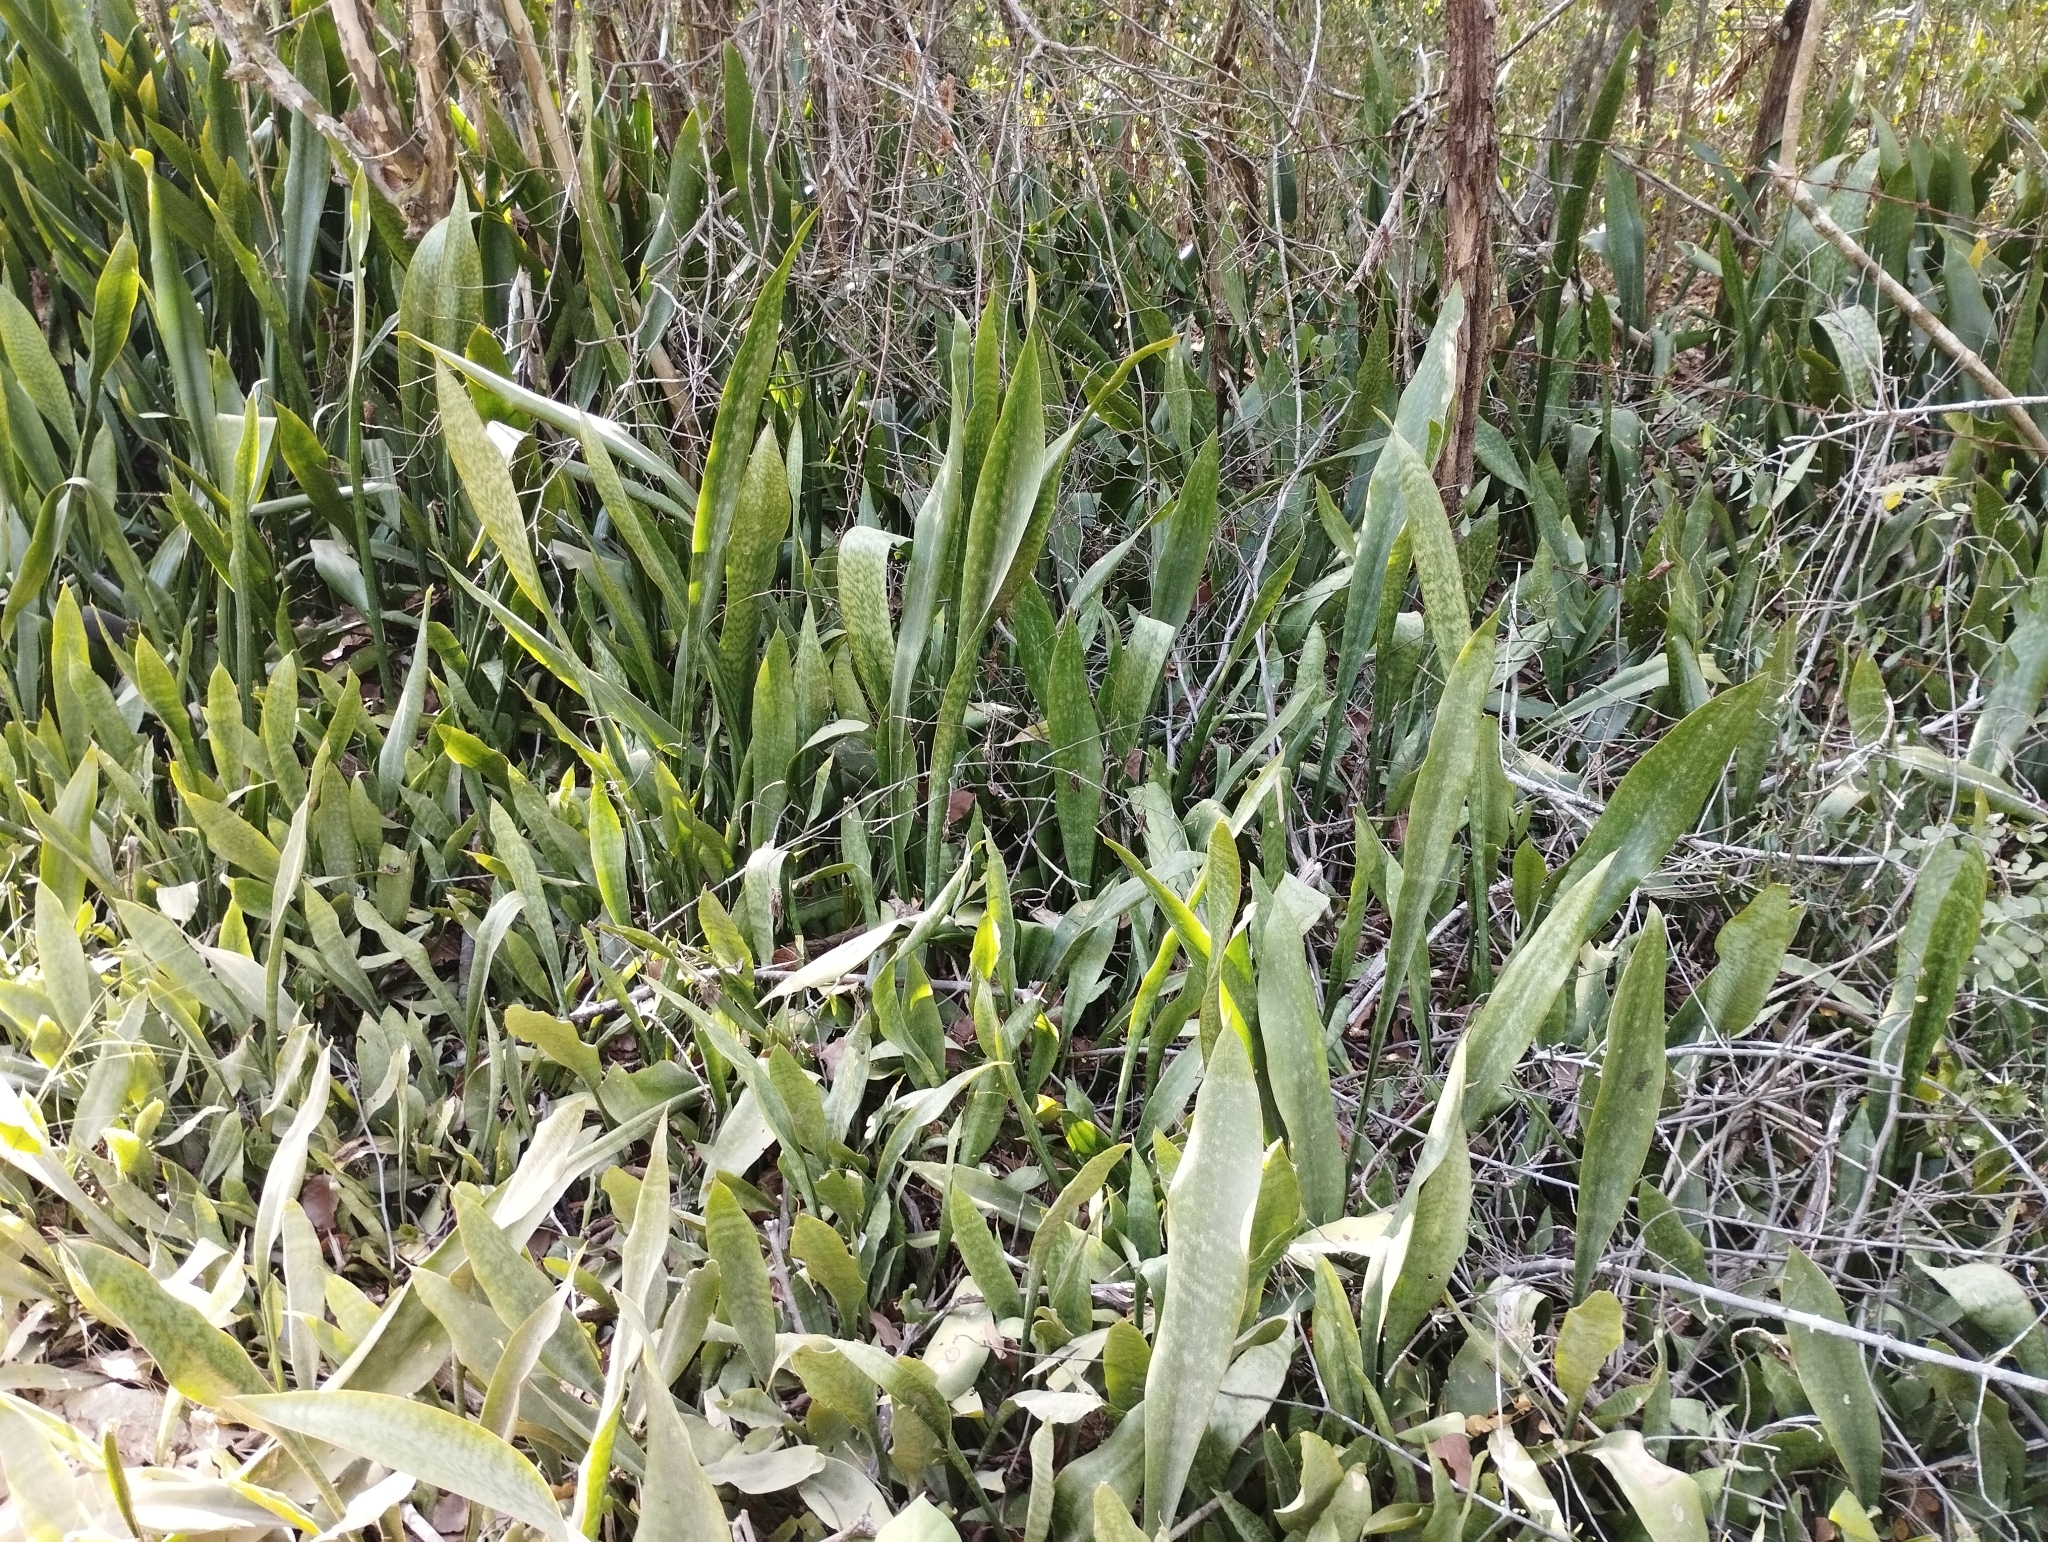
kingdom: Plantae
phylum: Tracheophyta
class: Liliopsida
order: Asparagales
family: Asparagaceae
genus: Dracaena
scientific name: Dracaena hyacinthoides
